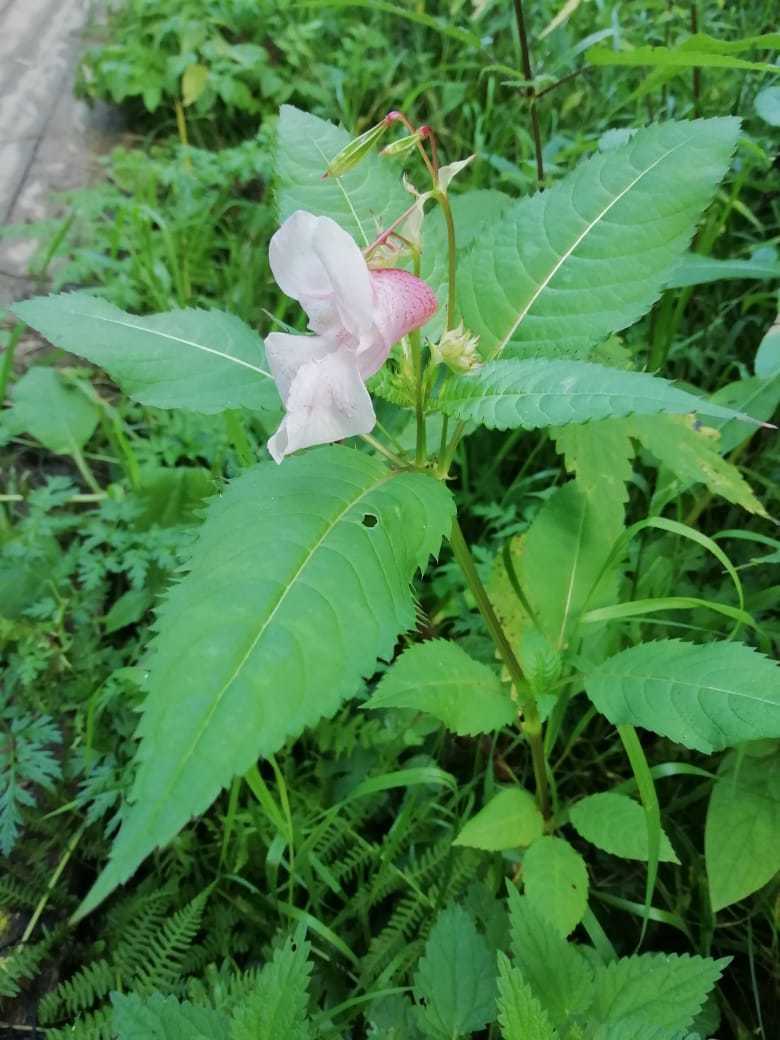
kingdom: Plantae
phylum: Tracheophyta
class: Magnoliopsida
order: Ericales
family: Balsaminaceae
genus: Impatiens
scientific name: Impatiens glandulifera
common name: Himalayan balsam
